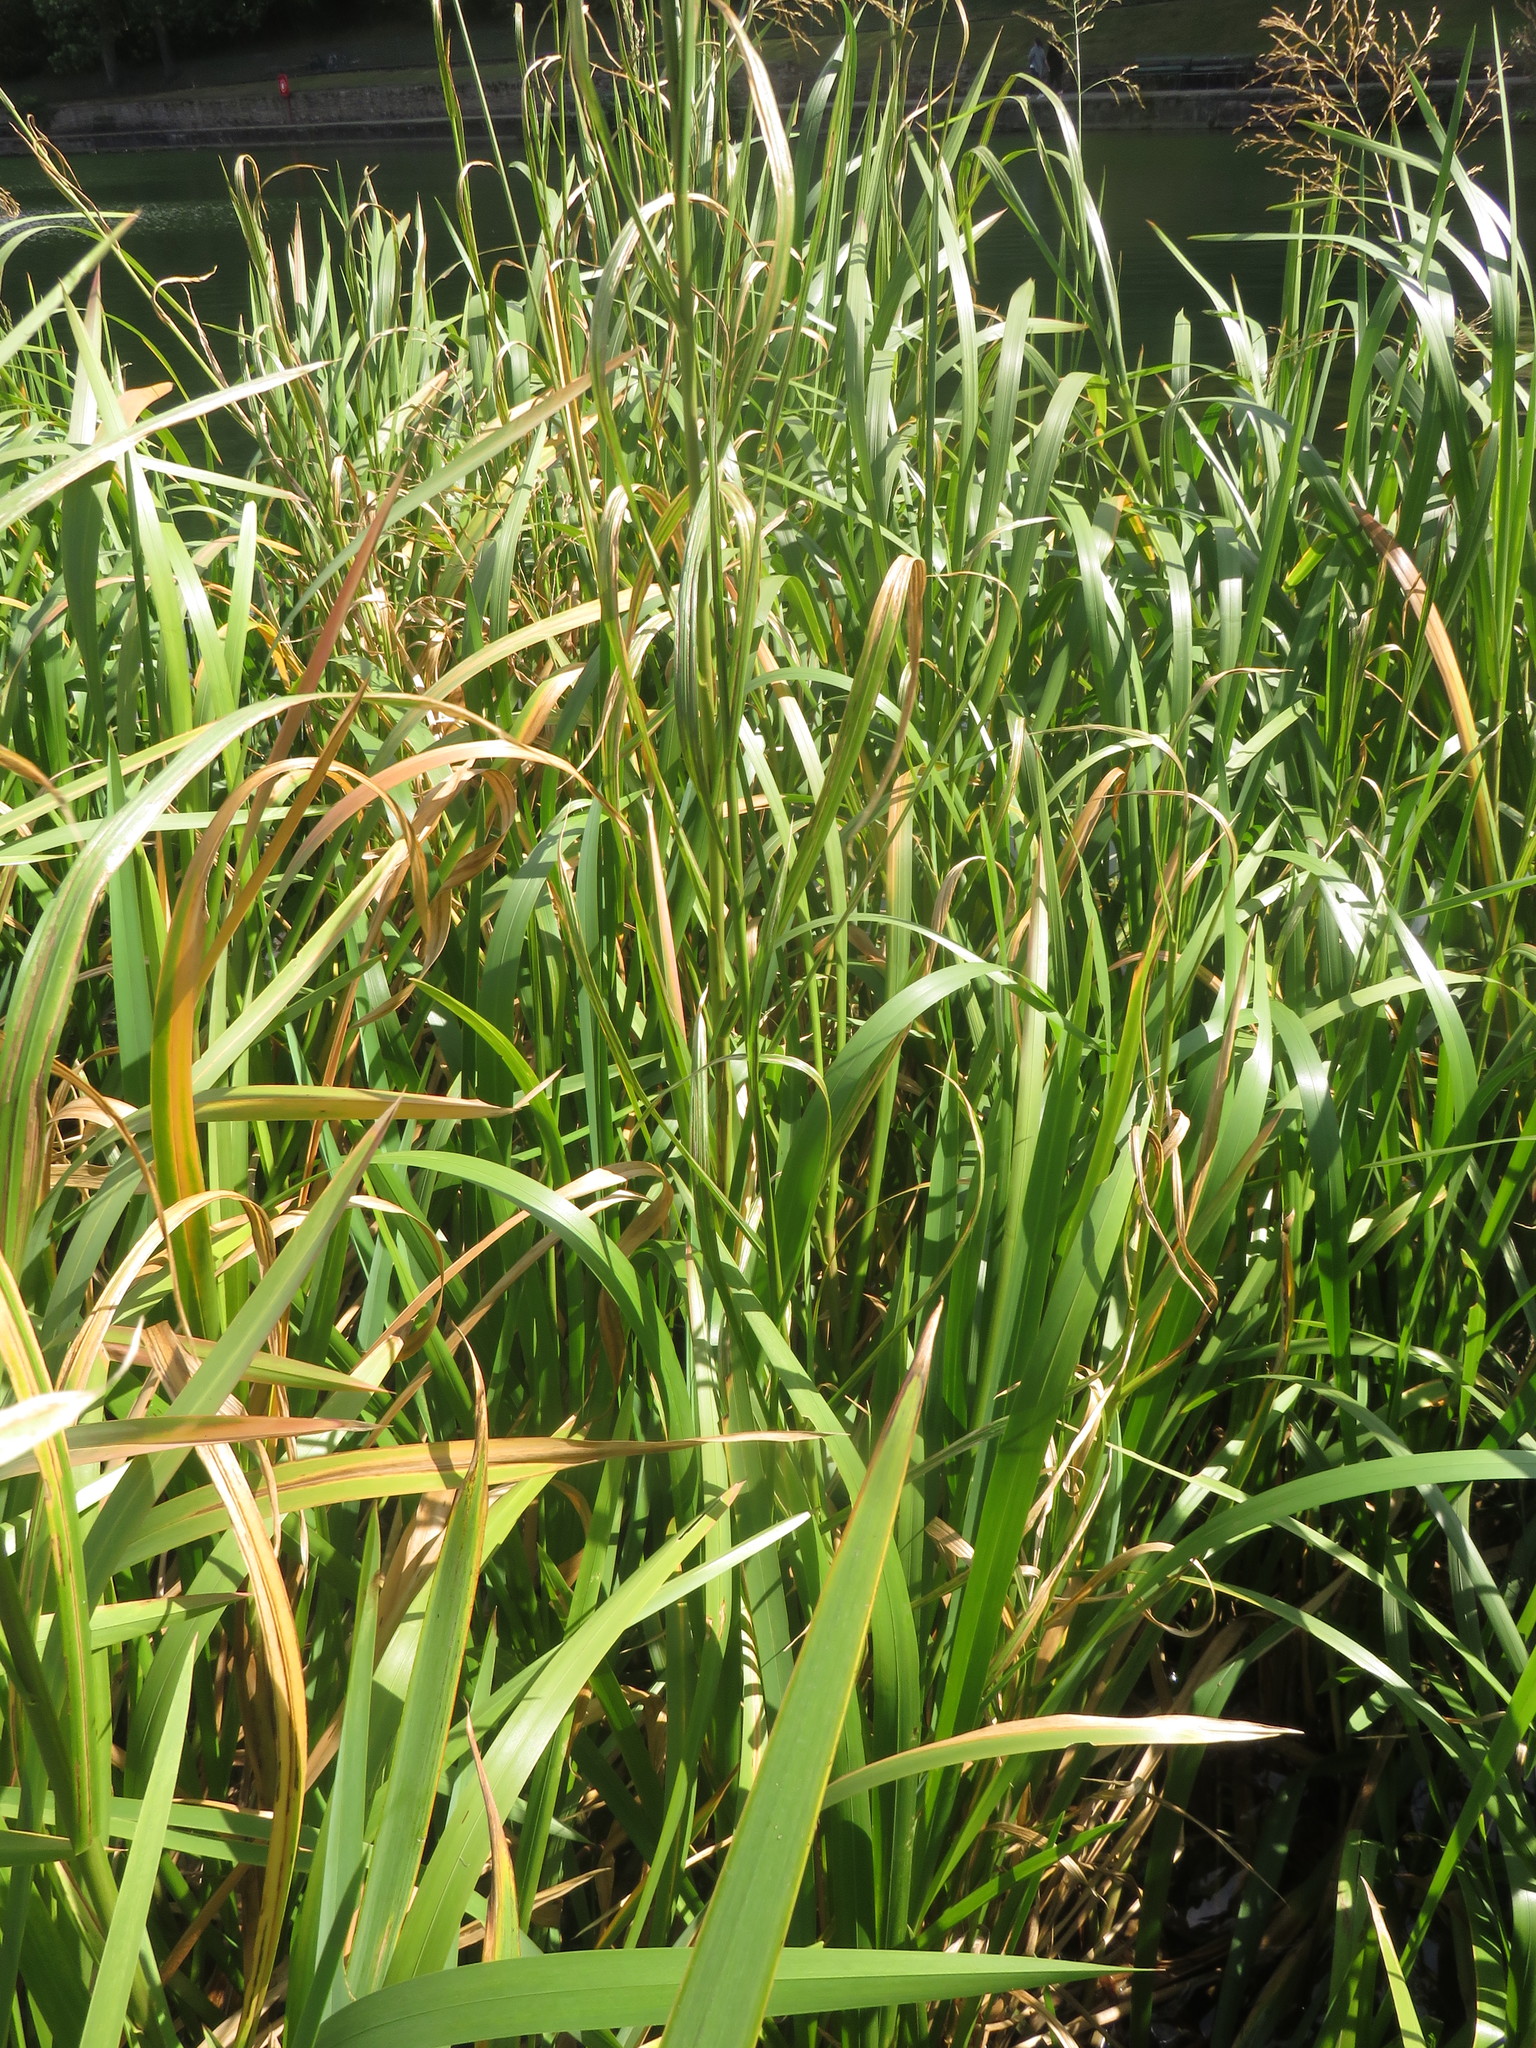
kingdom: Plantae
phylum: Tracheophyta
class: Liliopsida
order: Poales
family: Poaceae
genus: Glyceria
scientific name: Glyceria maxima
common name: Reed mannagrass
